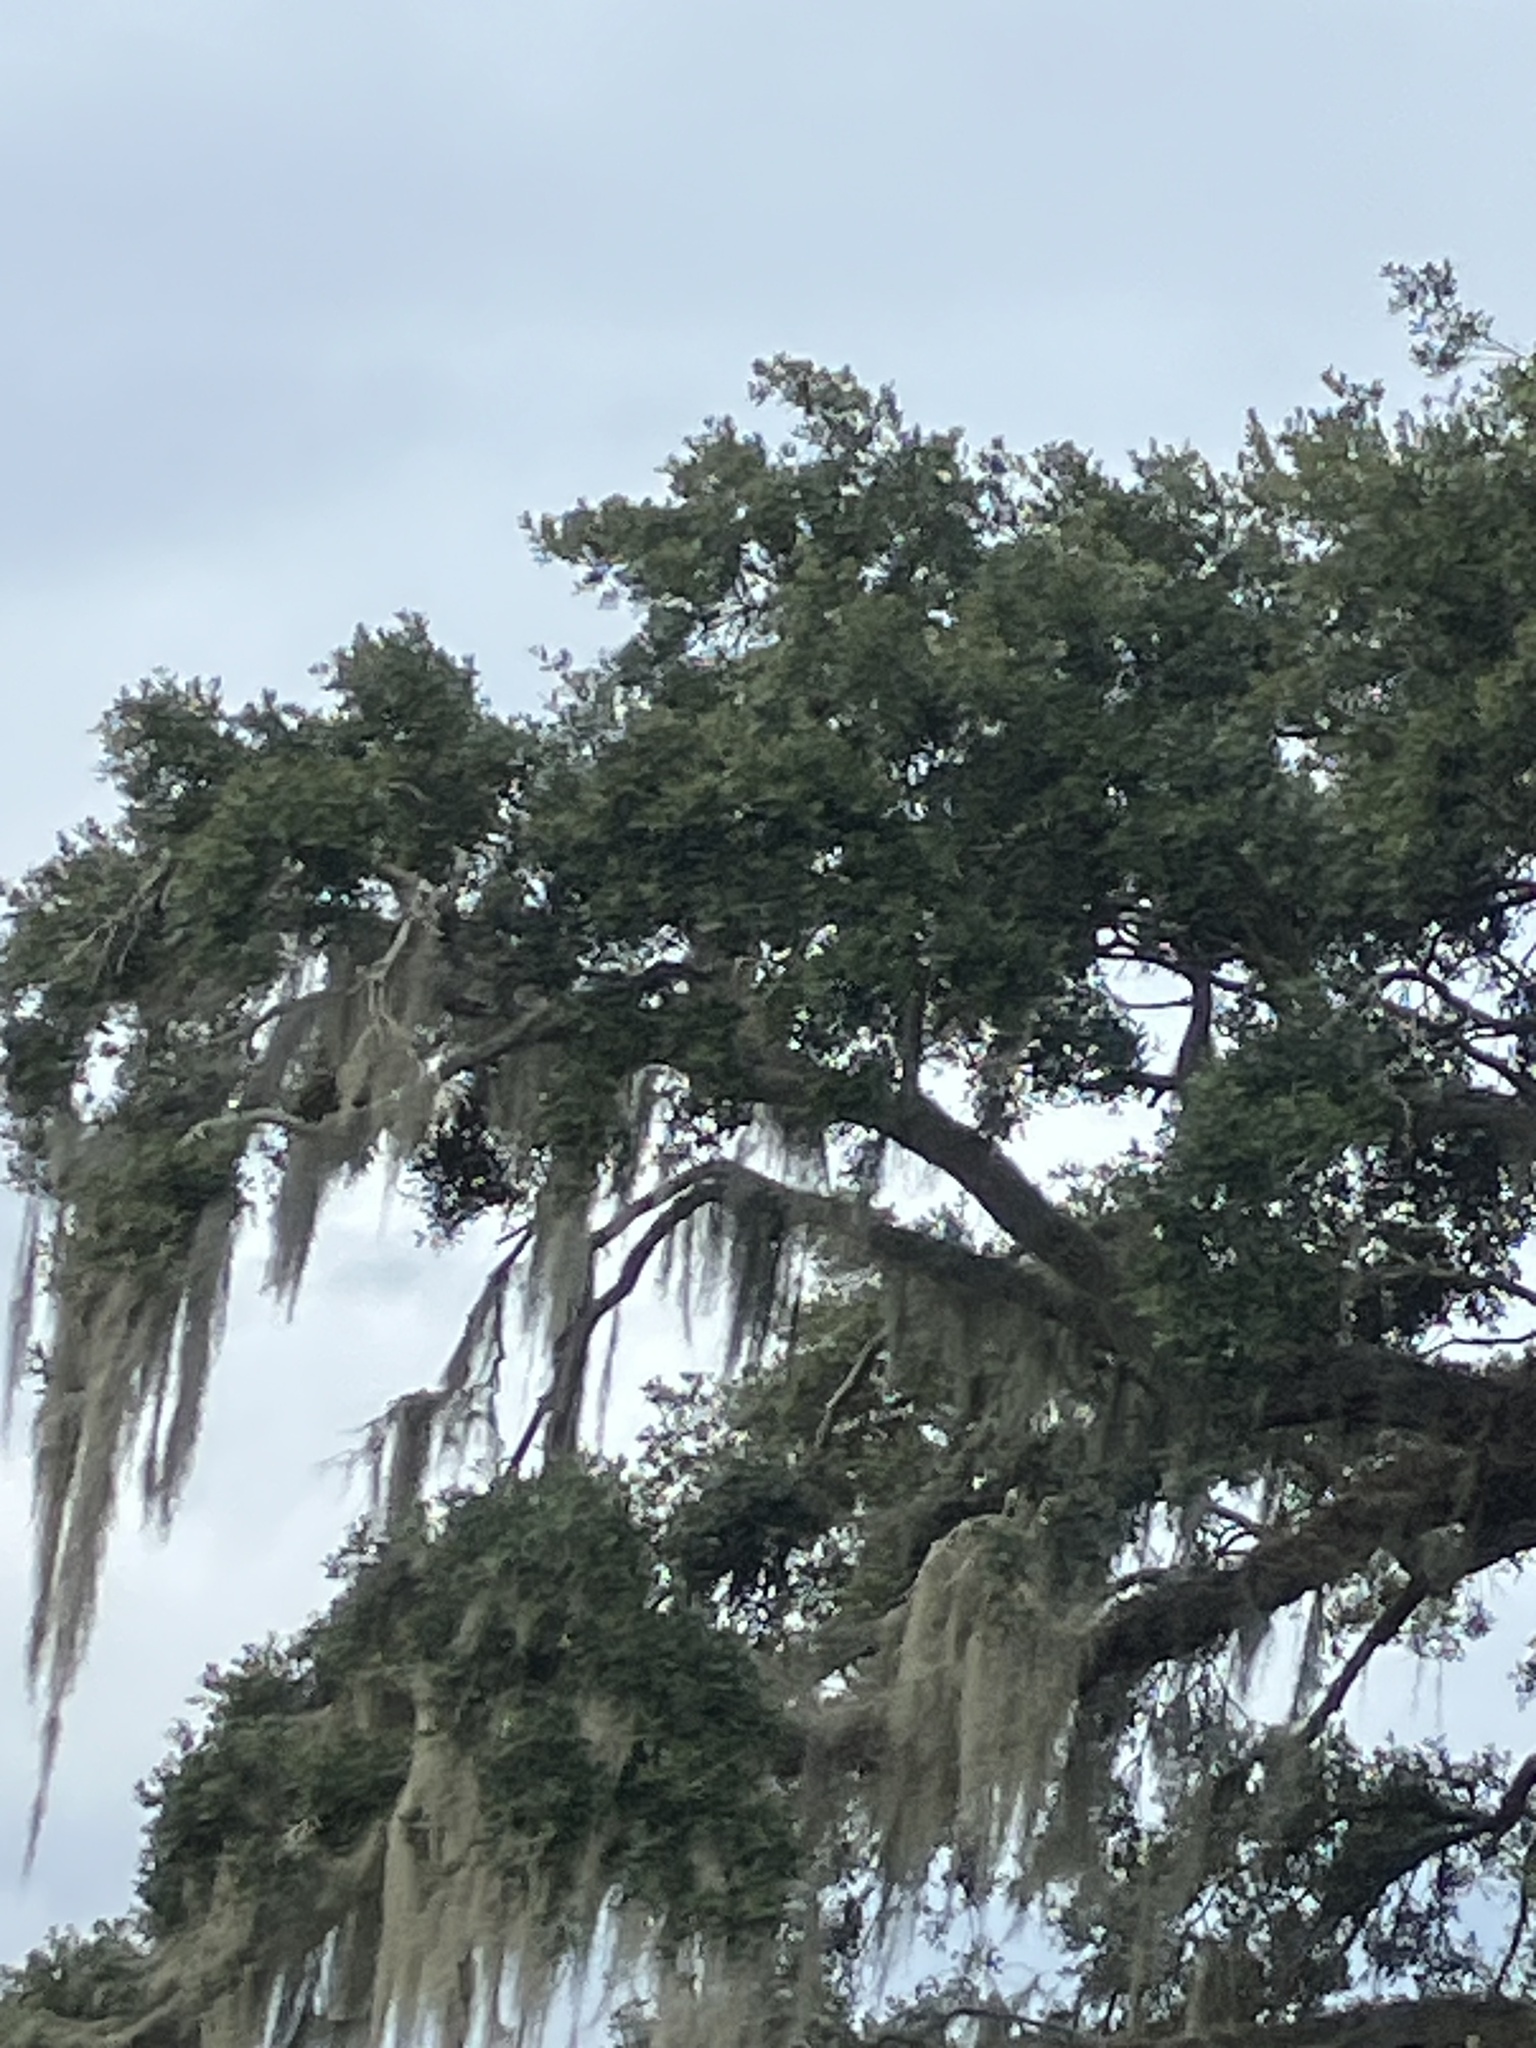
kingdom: Animalia
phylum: Chordata
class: Aves
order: Falconiformes
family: Falconidae
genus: Falco
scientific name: Falco sparverius
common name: American kestrel
